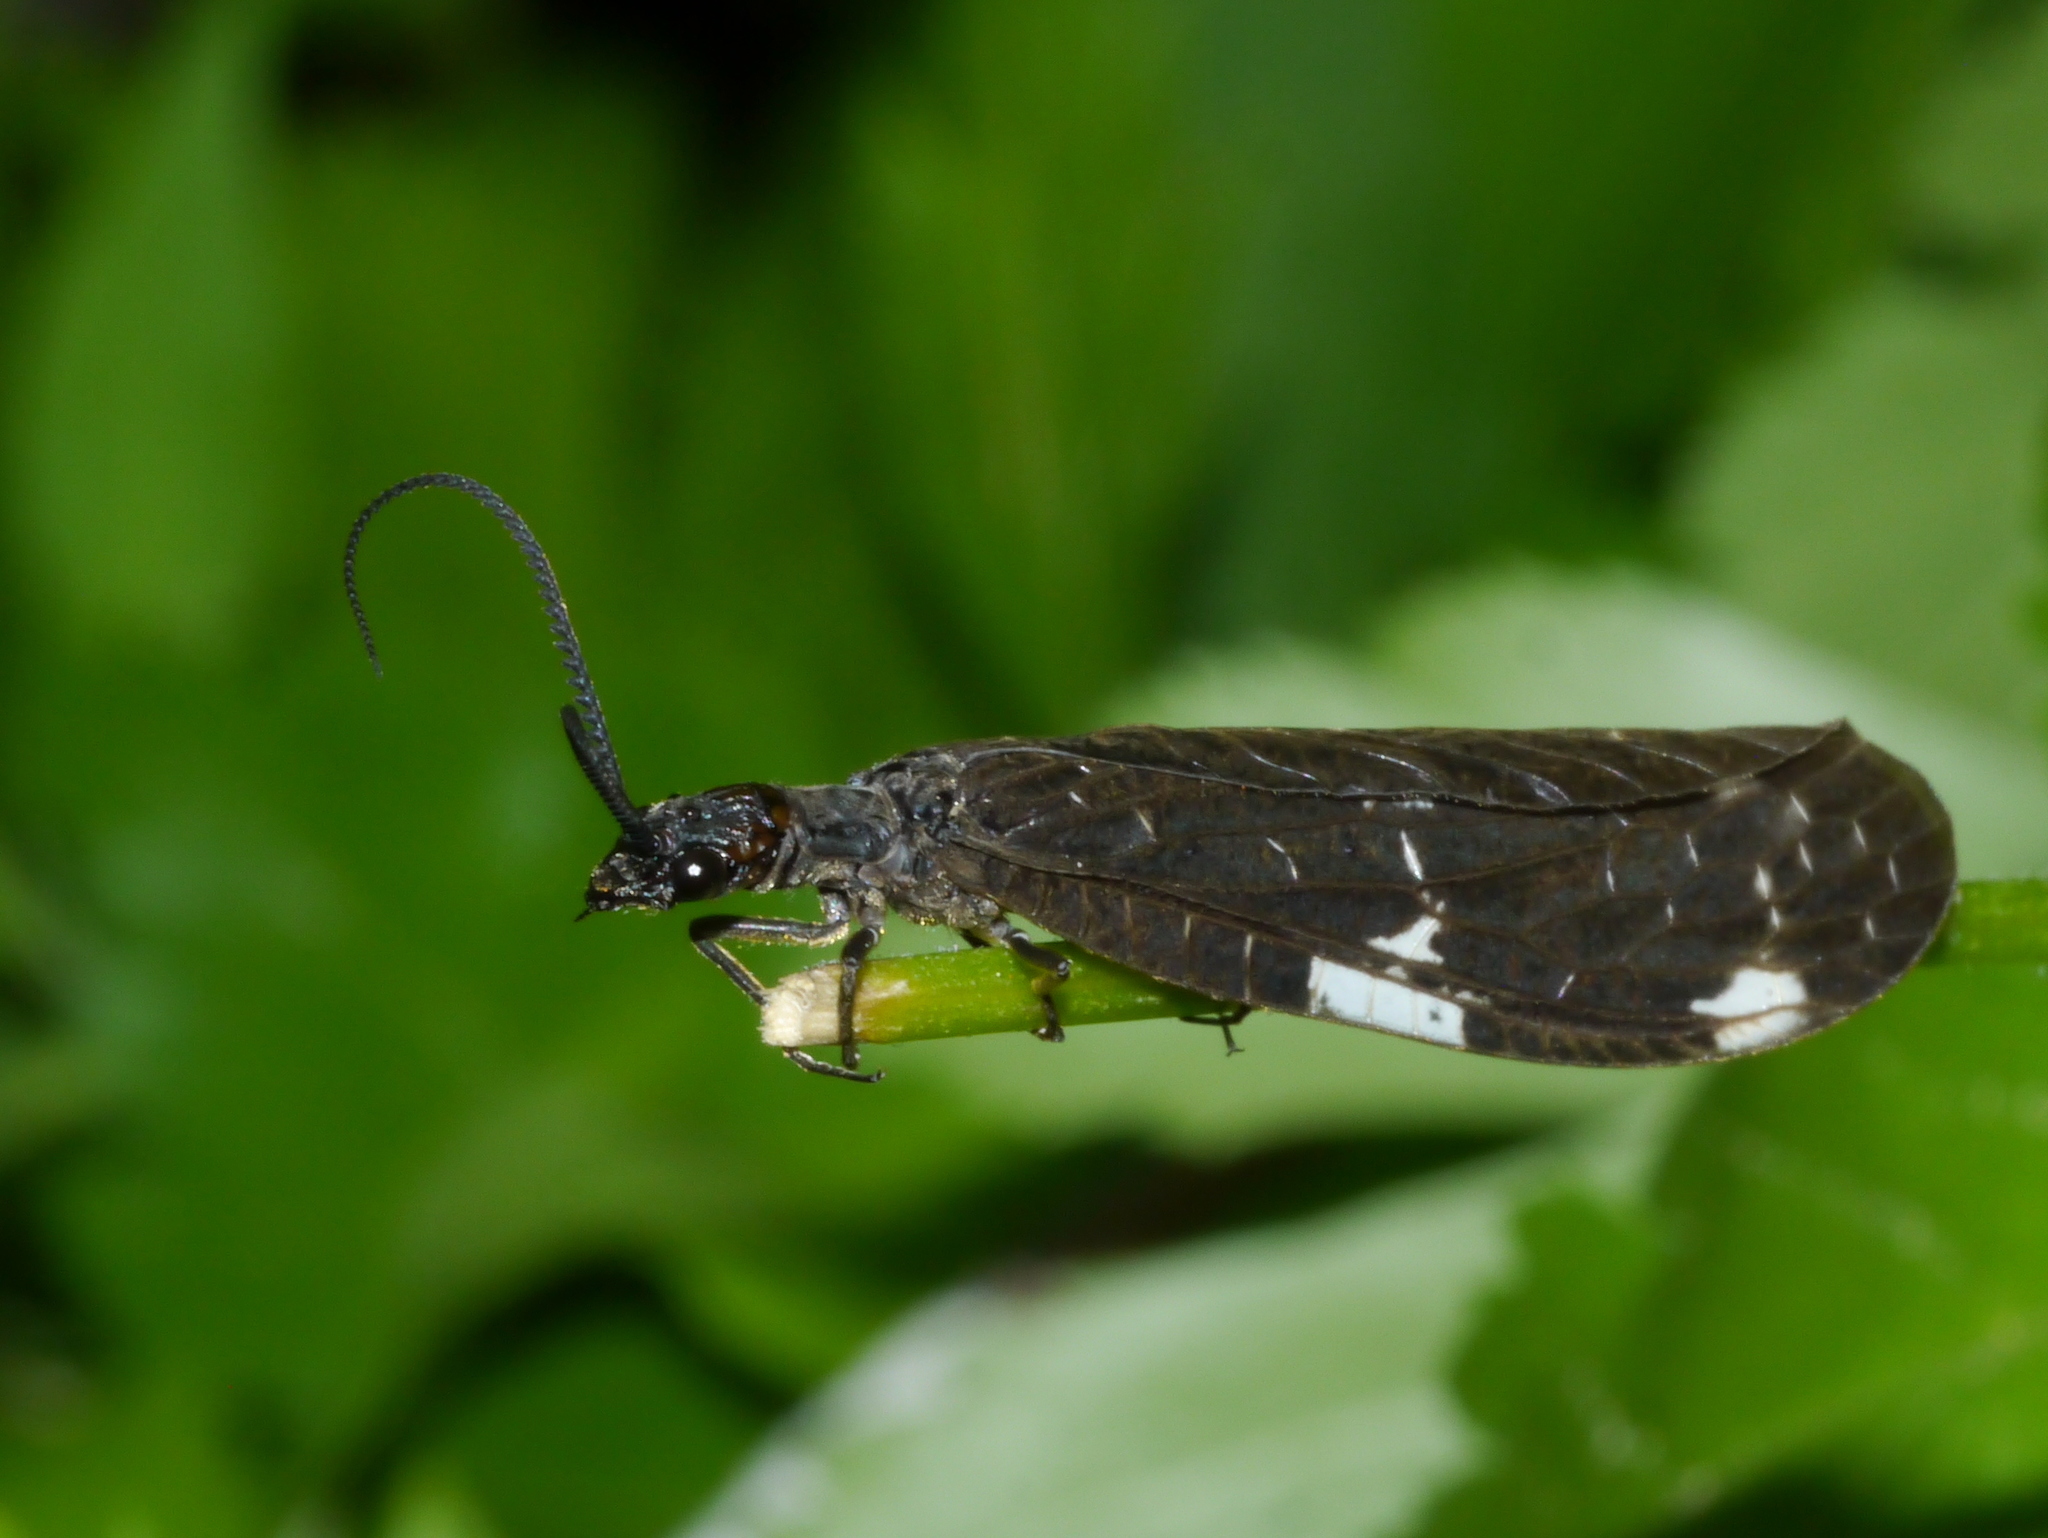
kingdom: Animalia
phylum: Arthropoda
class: Insecta
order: Megaloptera
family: Corydalidae
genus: Nigronia
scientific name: Nigronia serricornis
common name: Serrate dark fishfly
